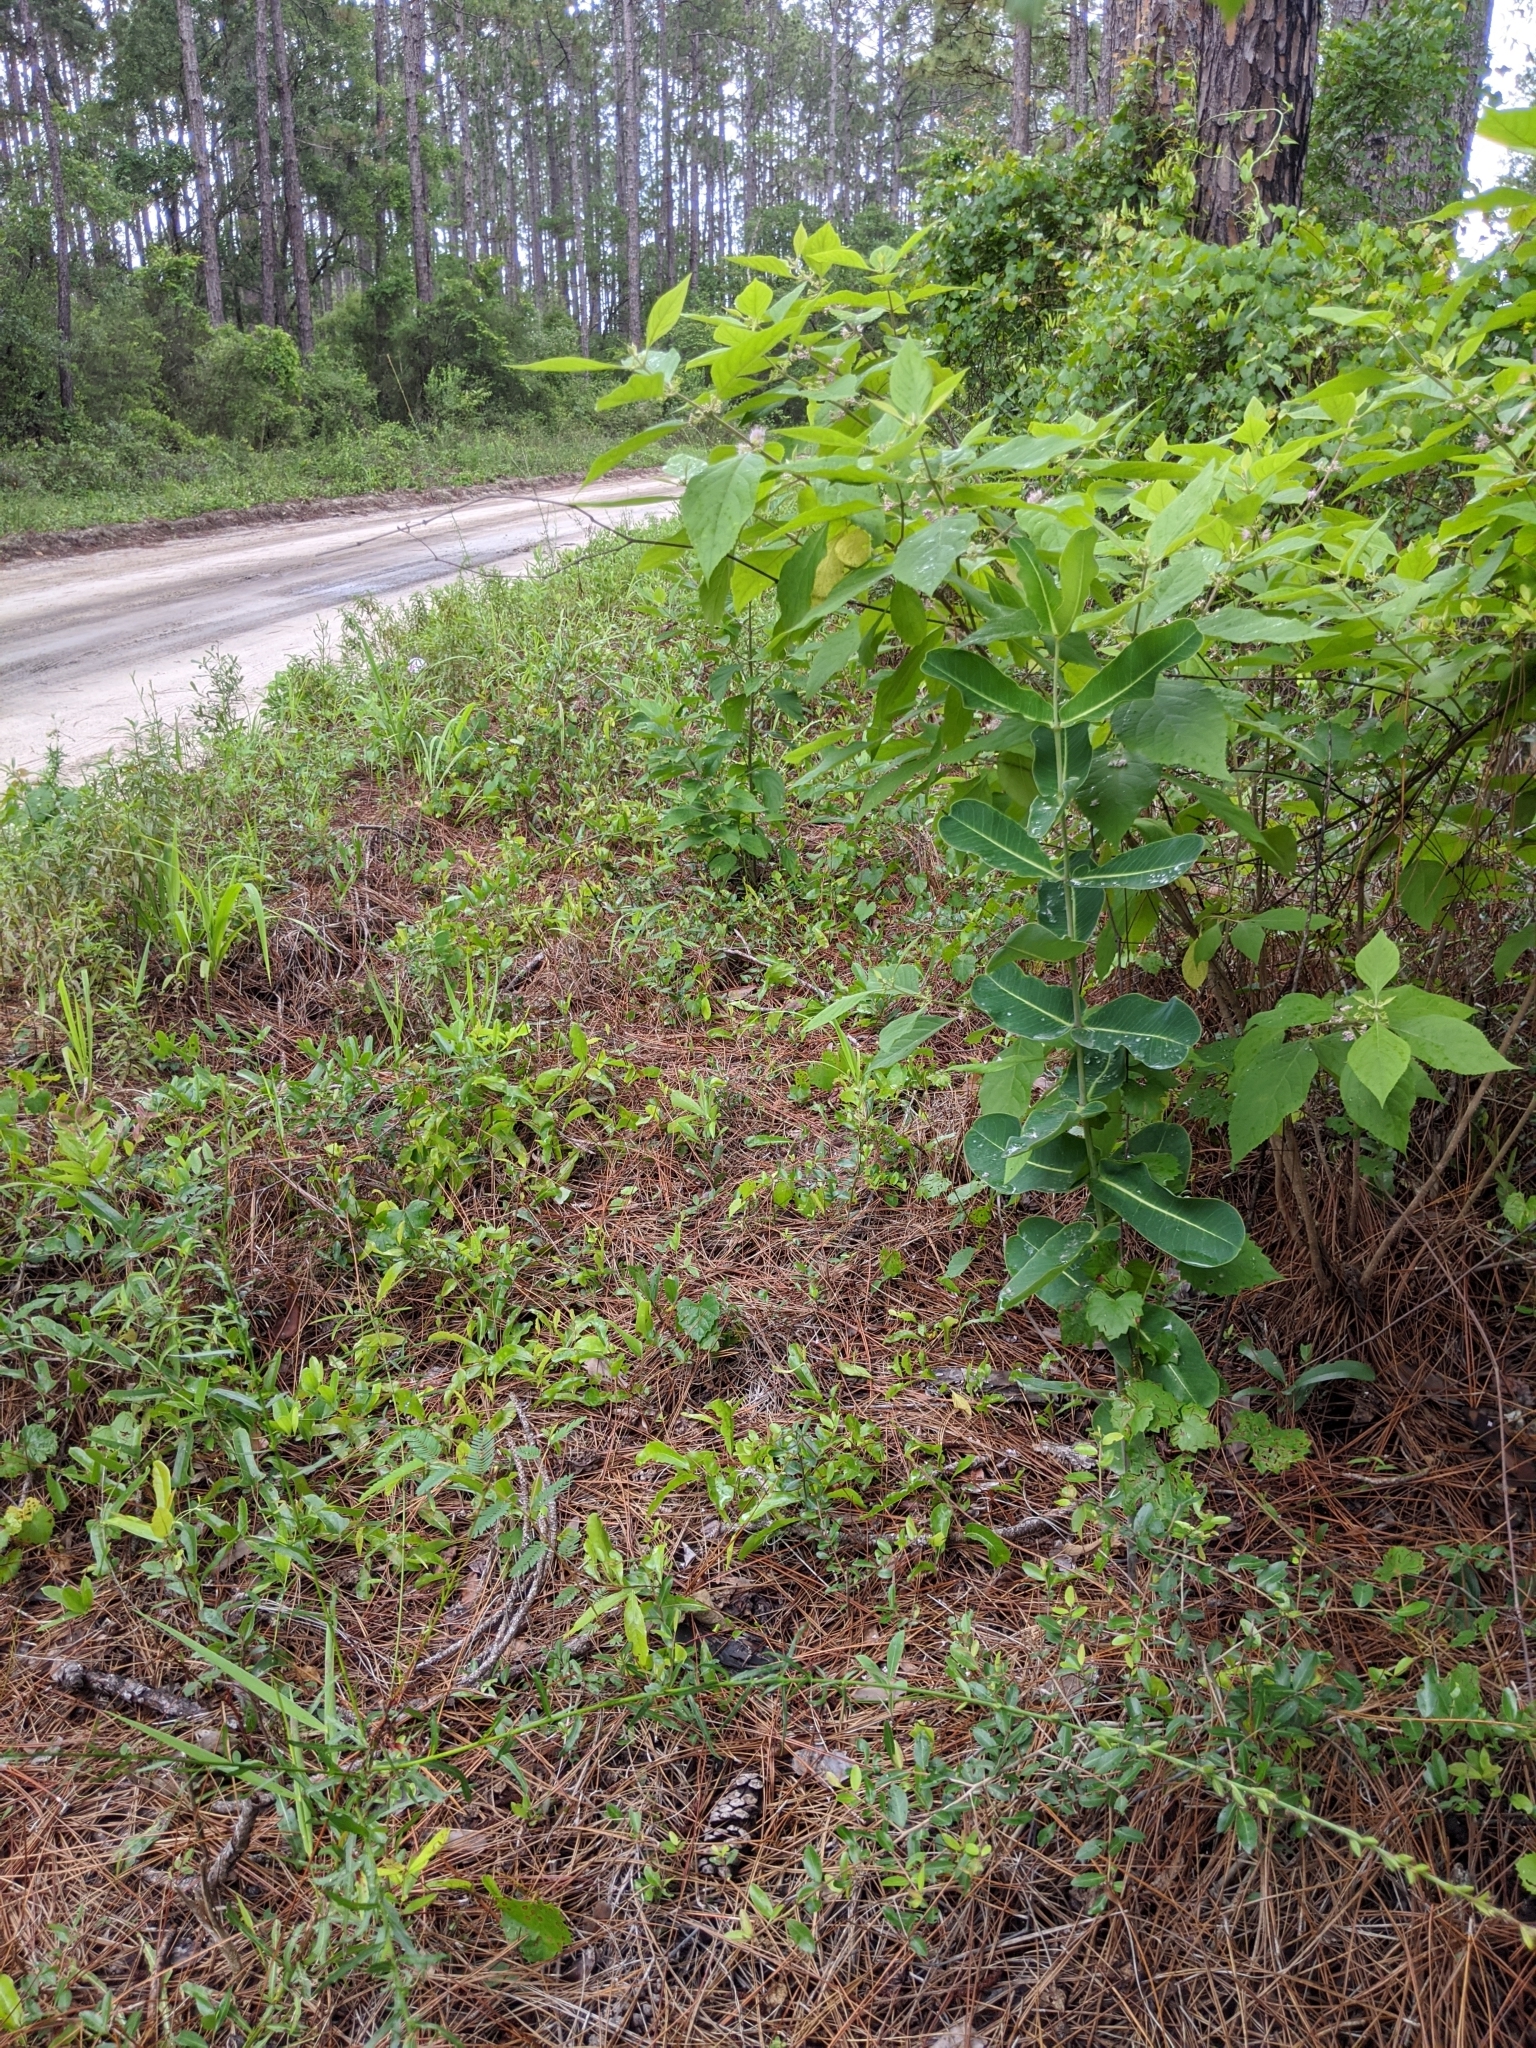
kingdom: Plantae
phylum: Tracheophyta
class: Magnoliopsida
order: Gentianales
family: Apocynaceae
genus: Asclepias
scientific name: Asclepias amplexicaulis
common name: Blunt-leaf milkweed
